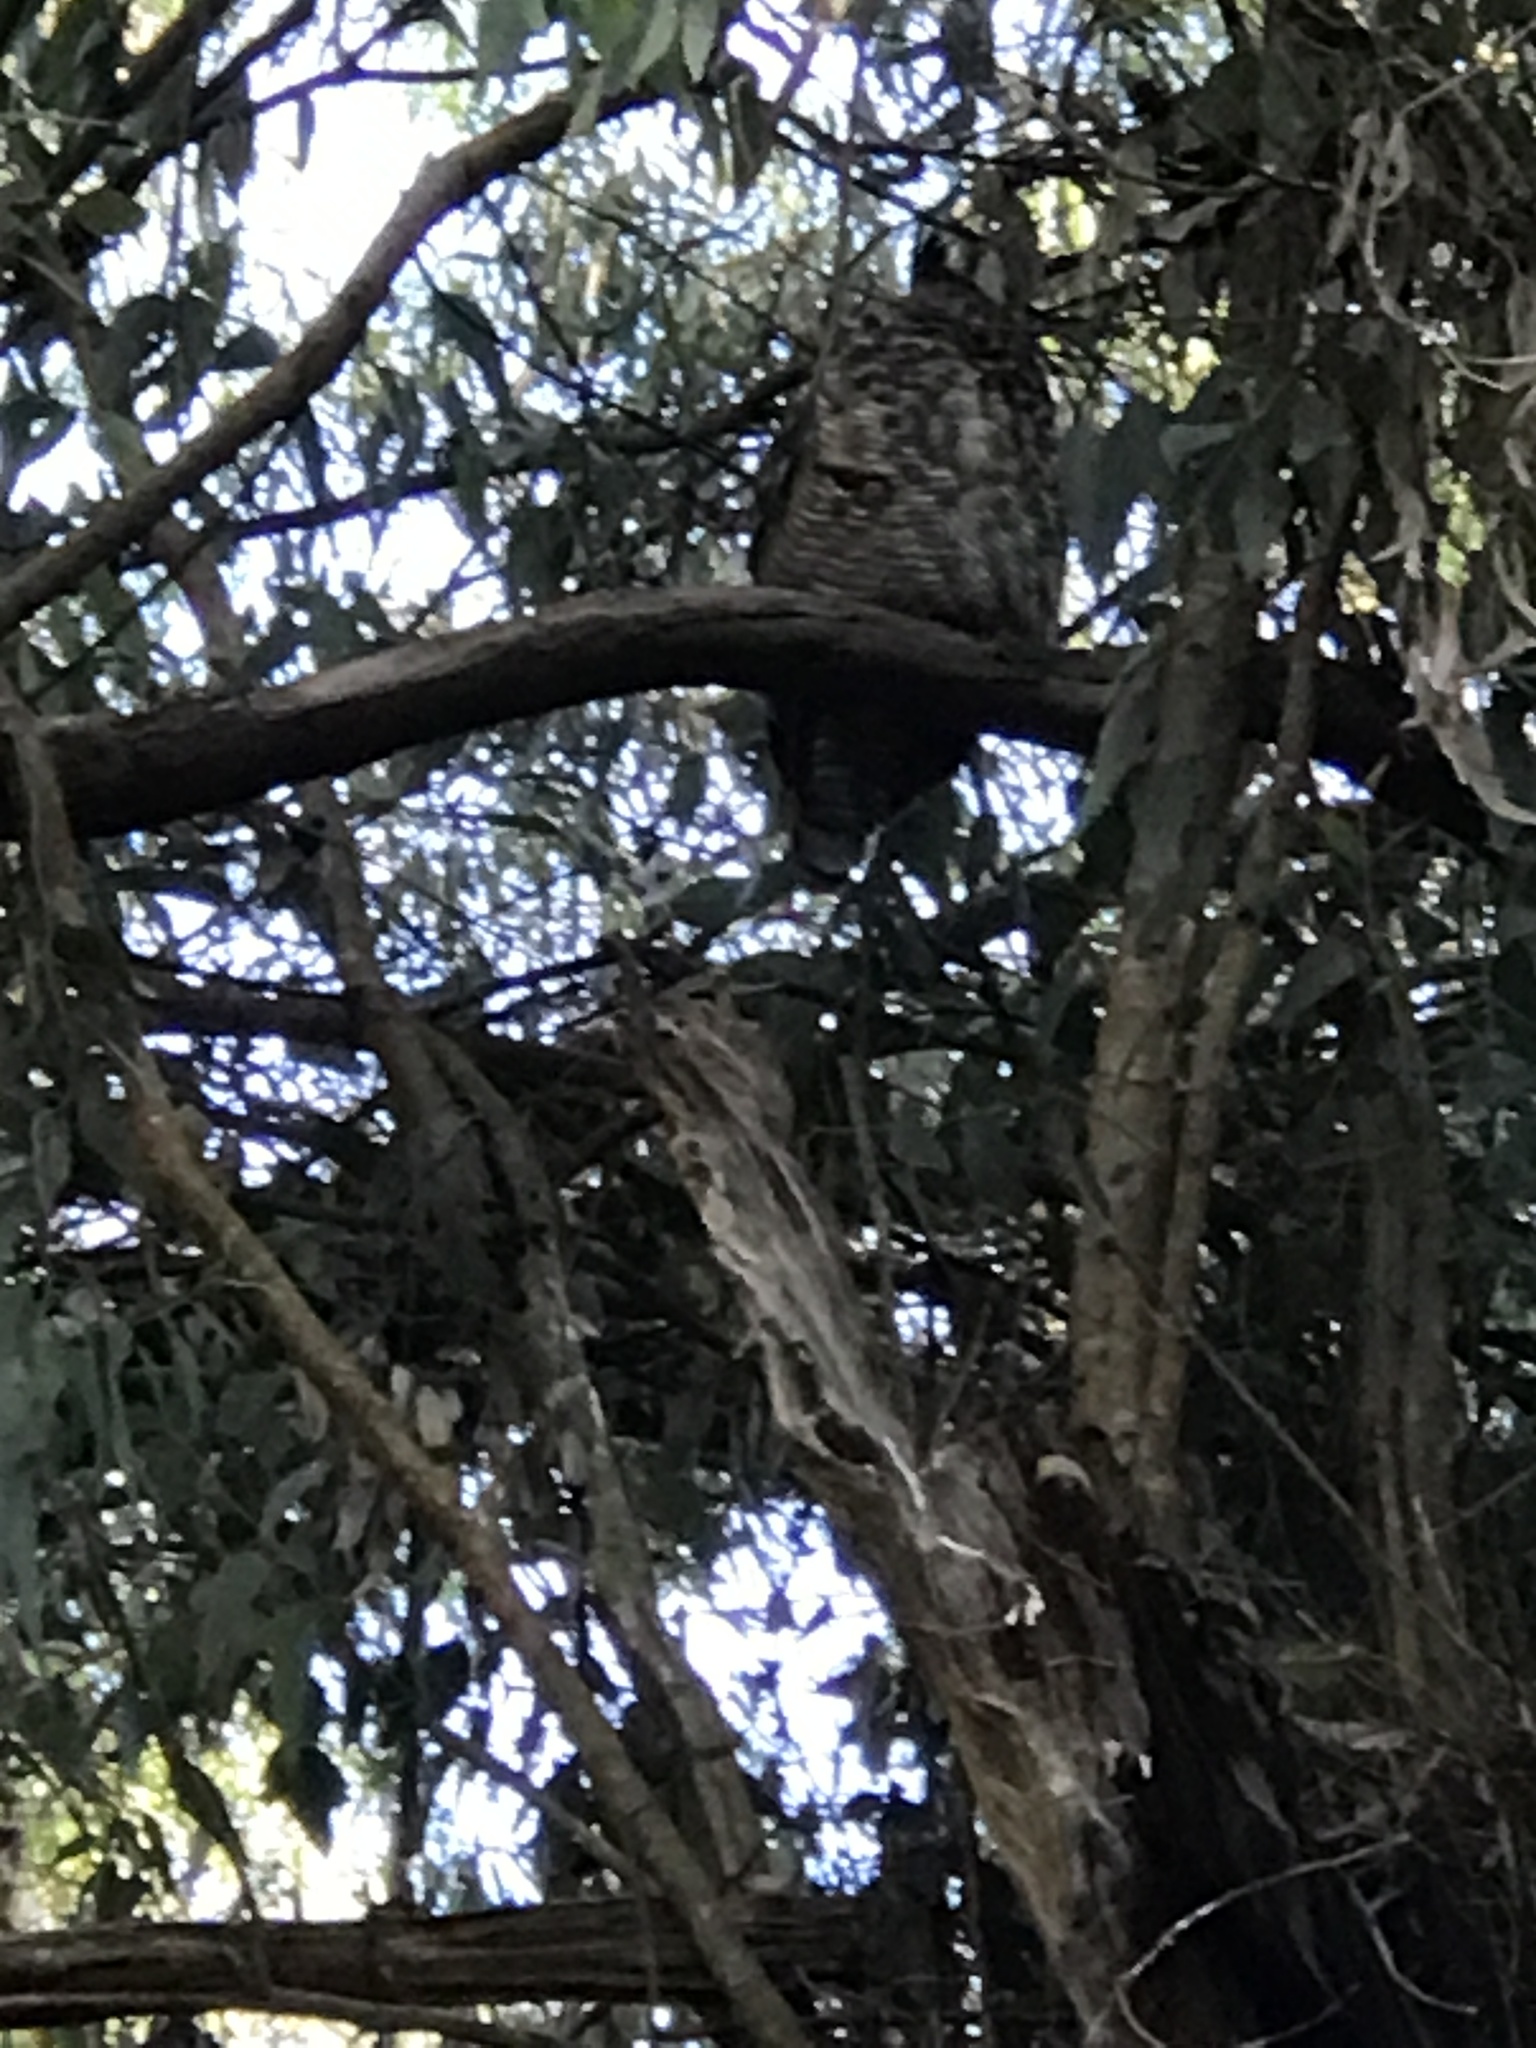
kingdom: Animalia
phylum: Chordata
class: Aves
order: Strigiformes
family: Strigidae
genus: Bubo
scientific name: Bubo virginianus
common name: Great horned owl
